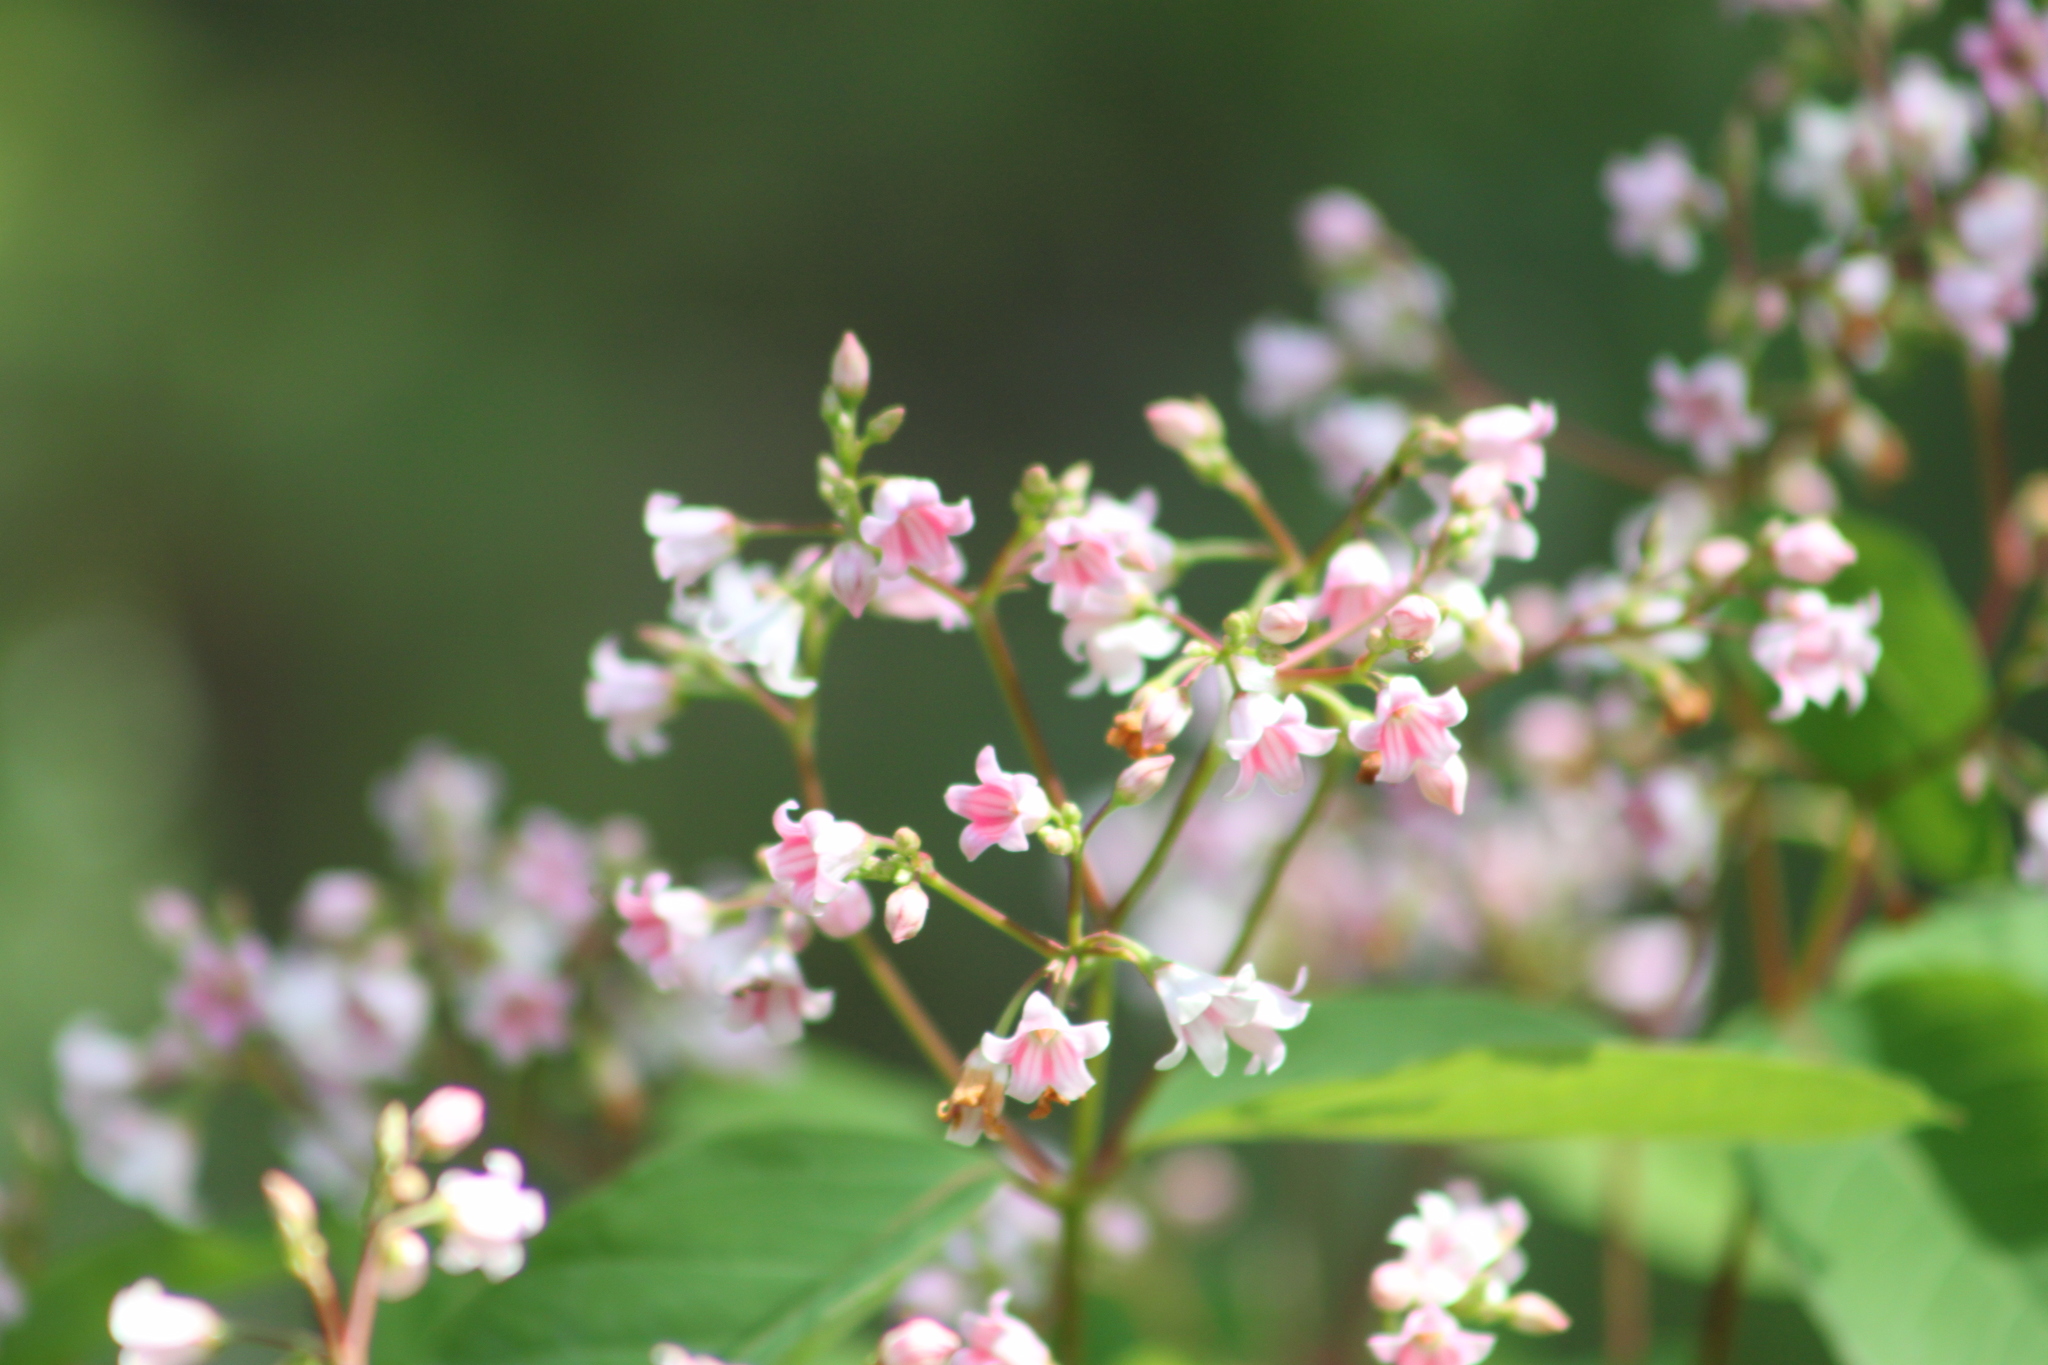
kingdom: Plantae
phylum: Tracheophyta
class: Magnoliopsida
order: Gentianales
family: Apocynaceae
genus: Apocynum
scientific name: Apocynum androsaemifolium
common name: Spreading dogbane
